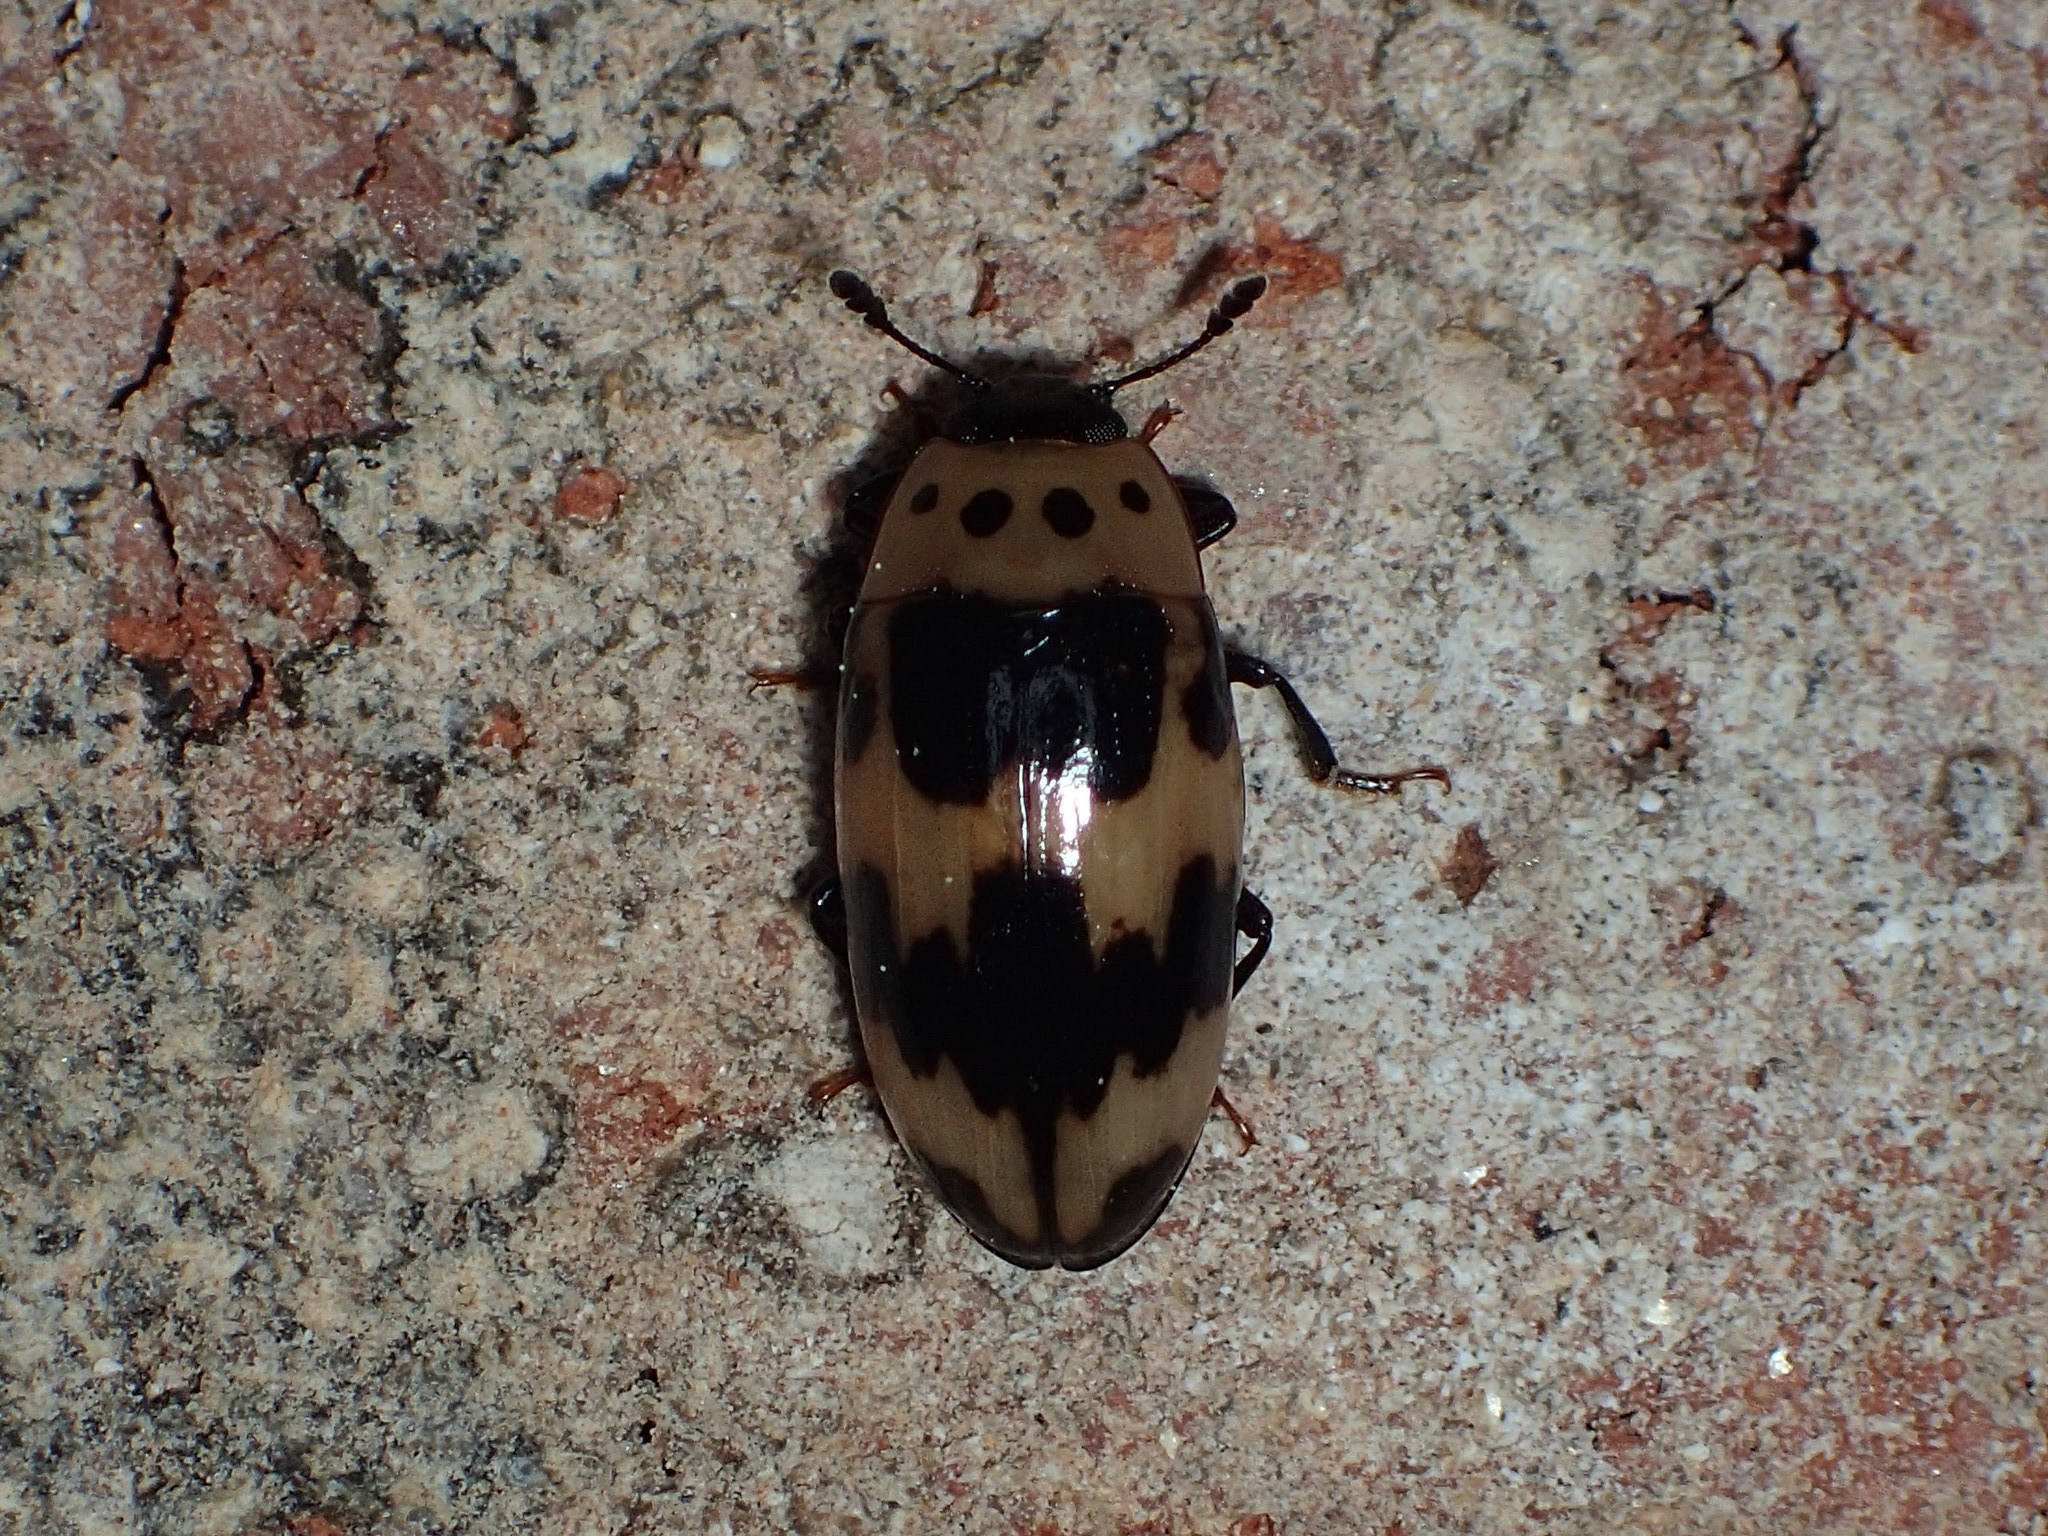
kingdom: Animalia
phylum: Arthropoda
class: Insecta
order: Coleoptera
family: Erotylidae
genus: Ischyrus
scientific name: Ischyrus quadripunctatus
